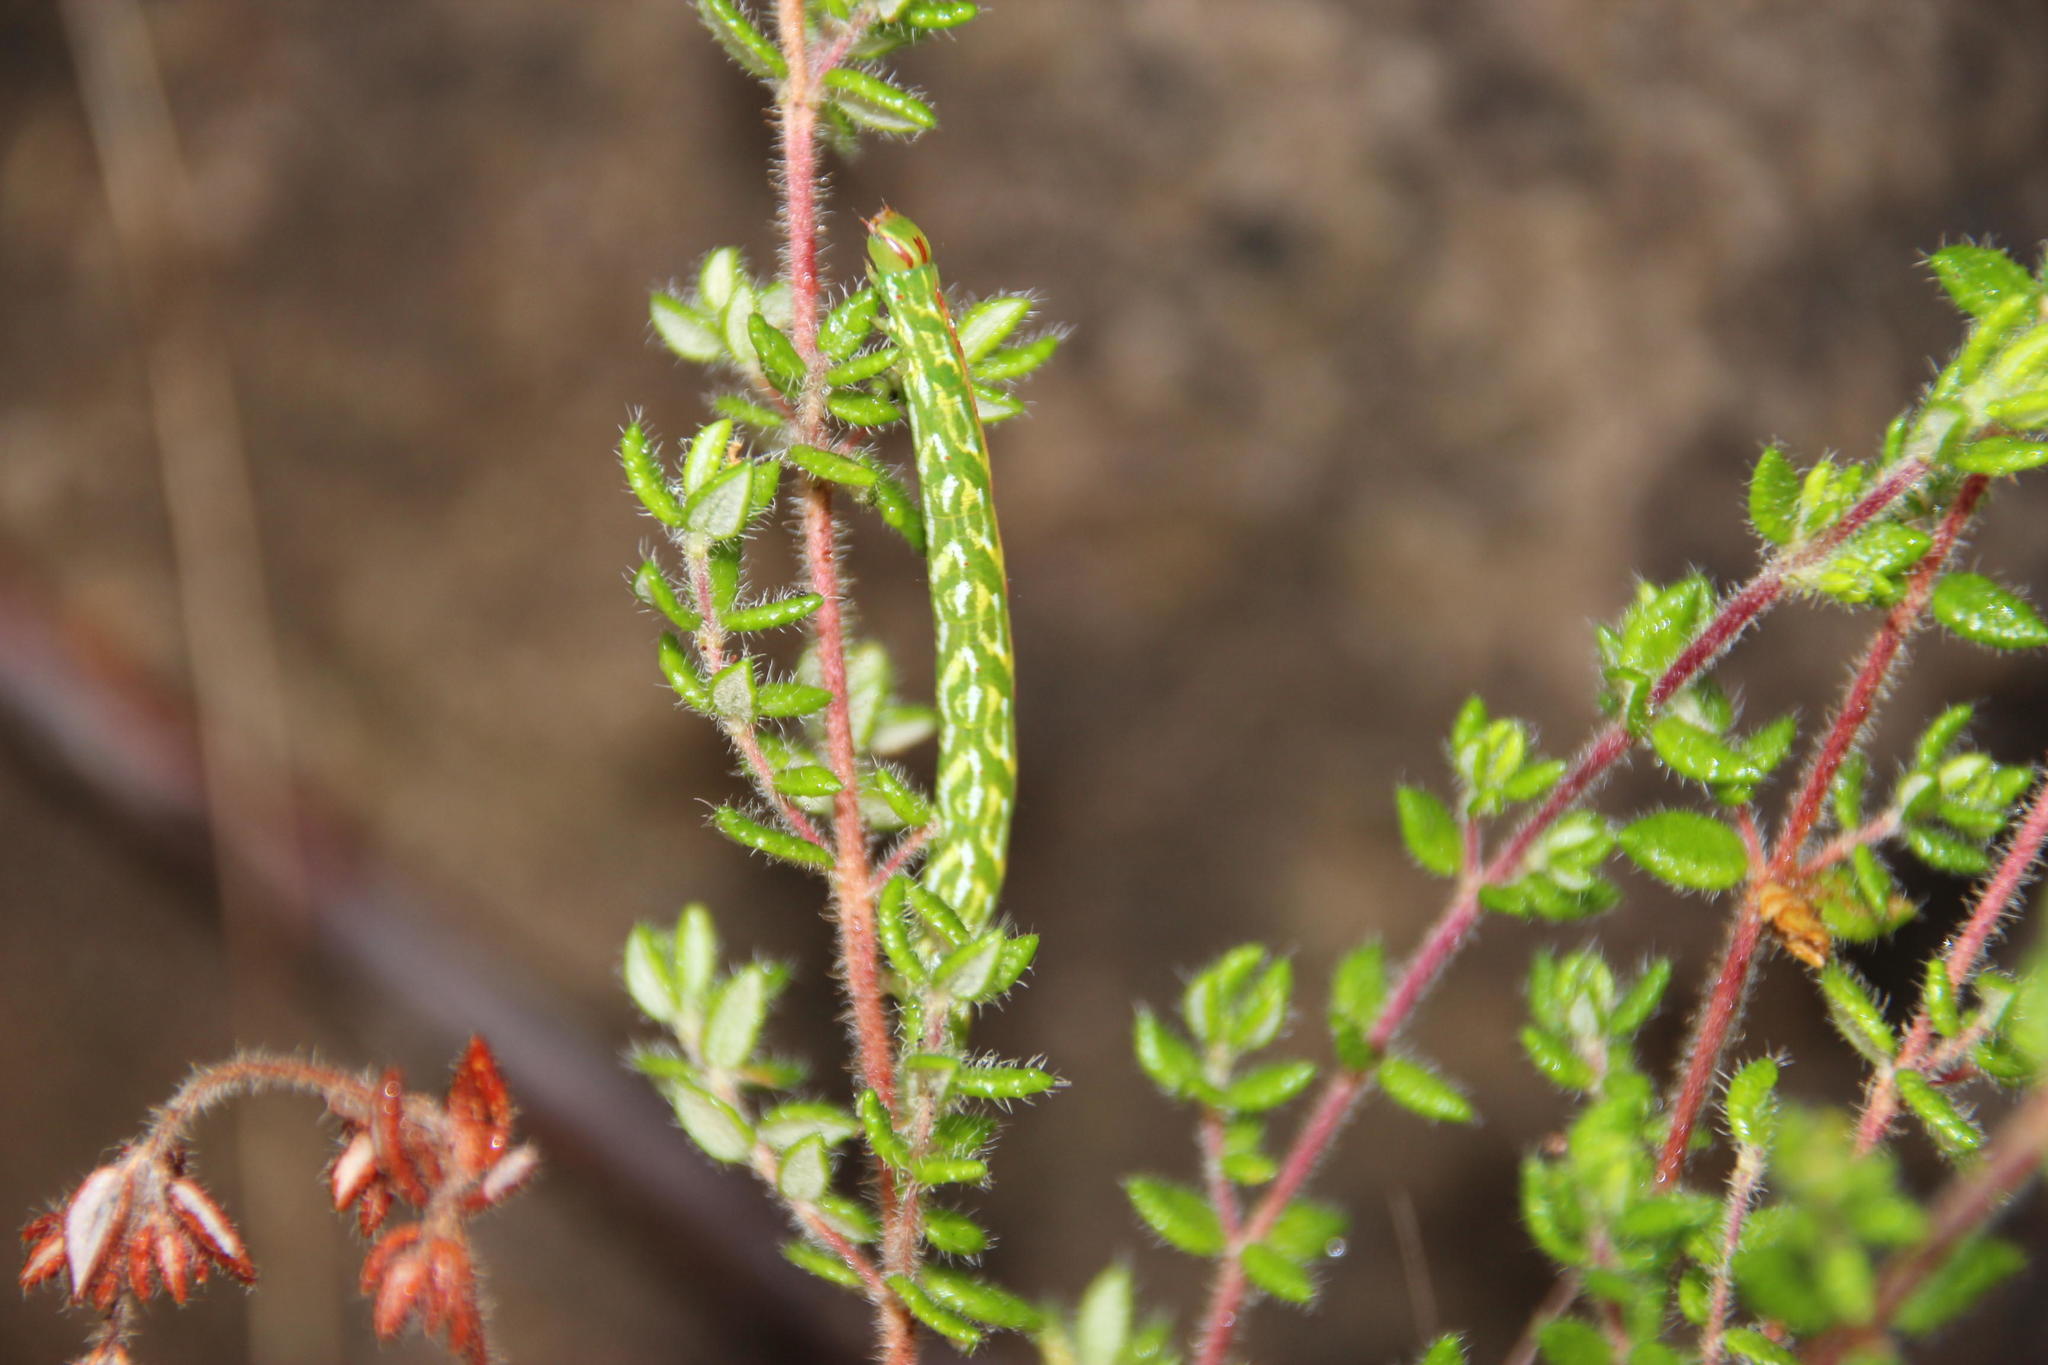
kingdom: Plantae
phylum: Tracheophyta
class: Magnoliopsida
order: Ericales
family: Ericaceae
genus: Erica
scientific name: Erica cordata
